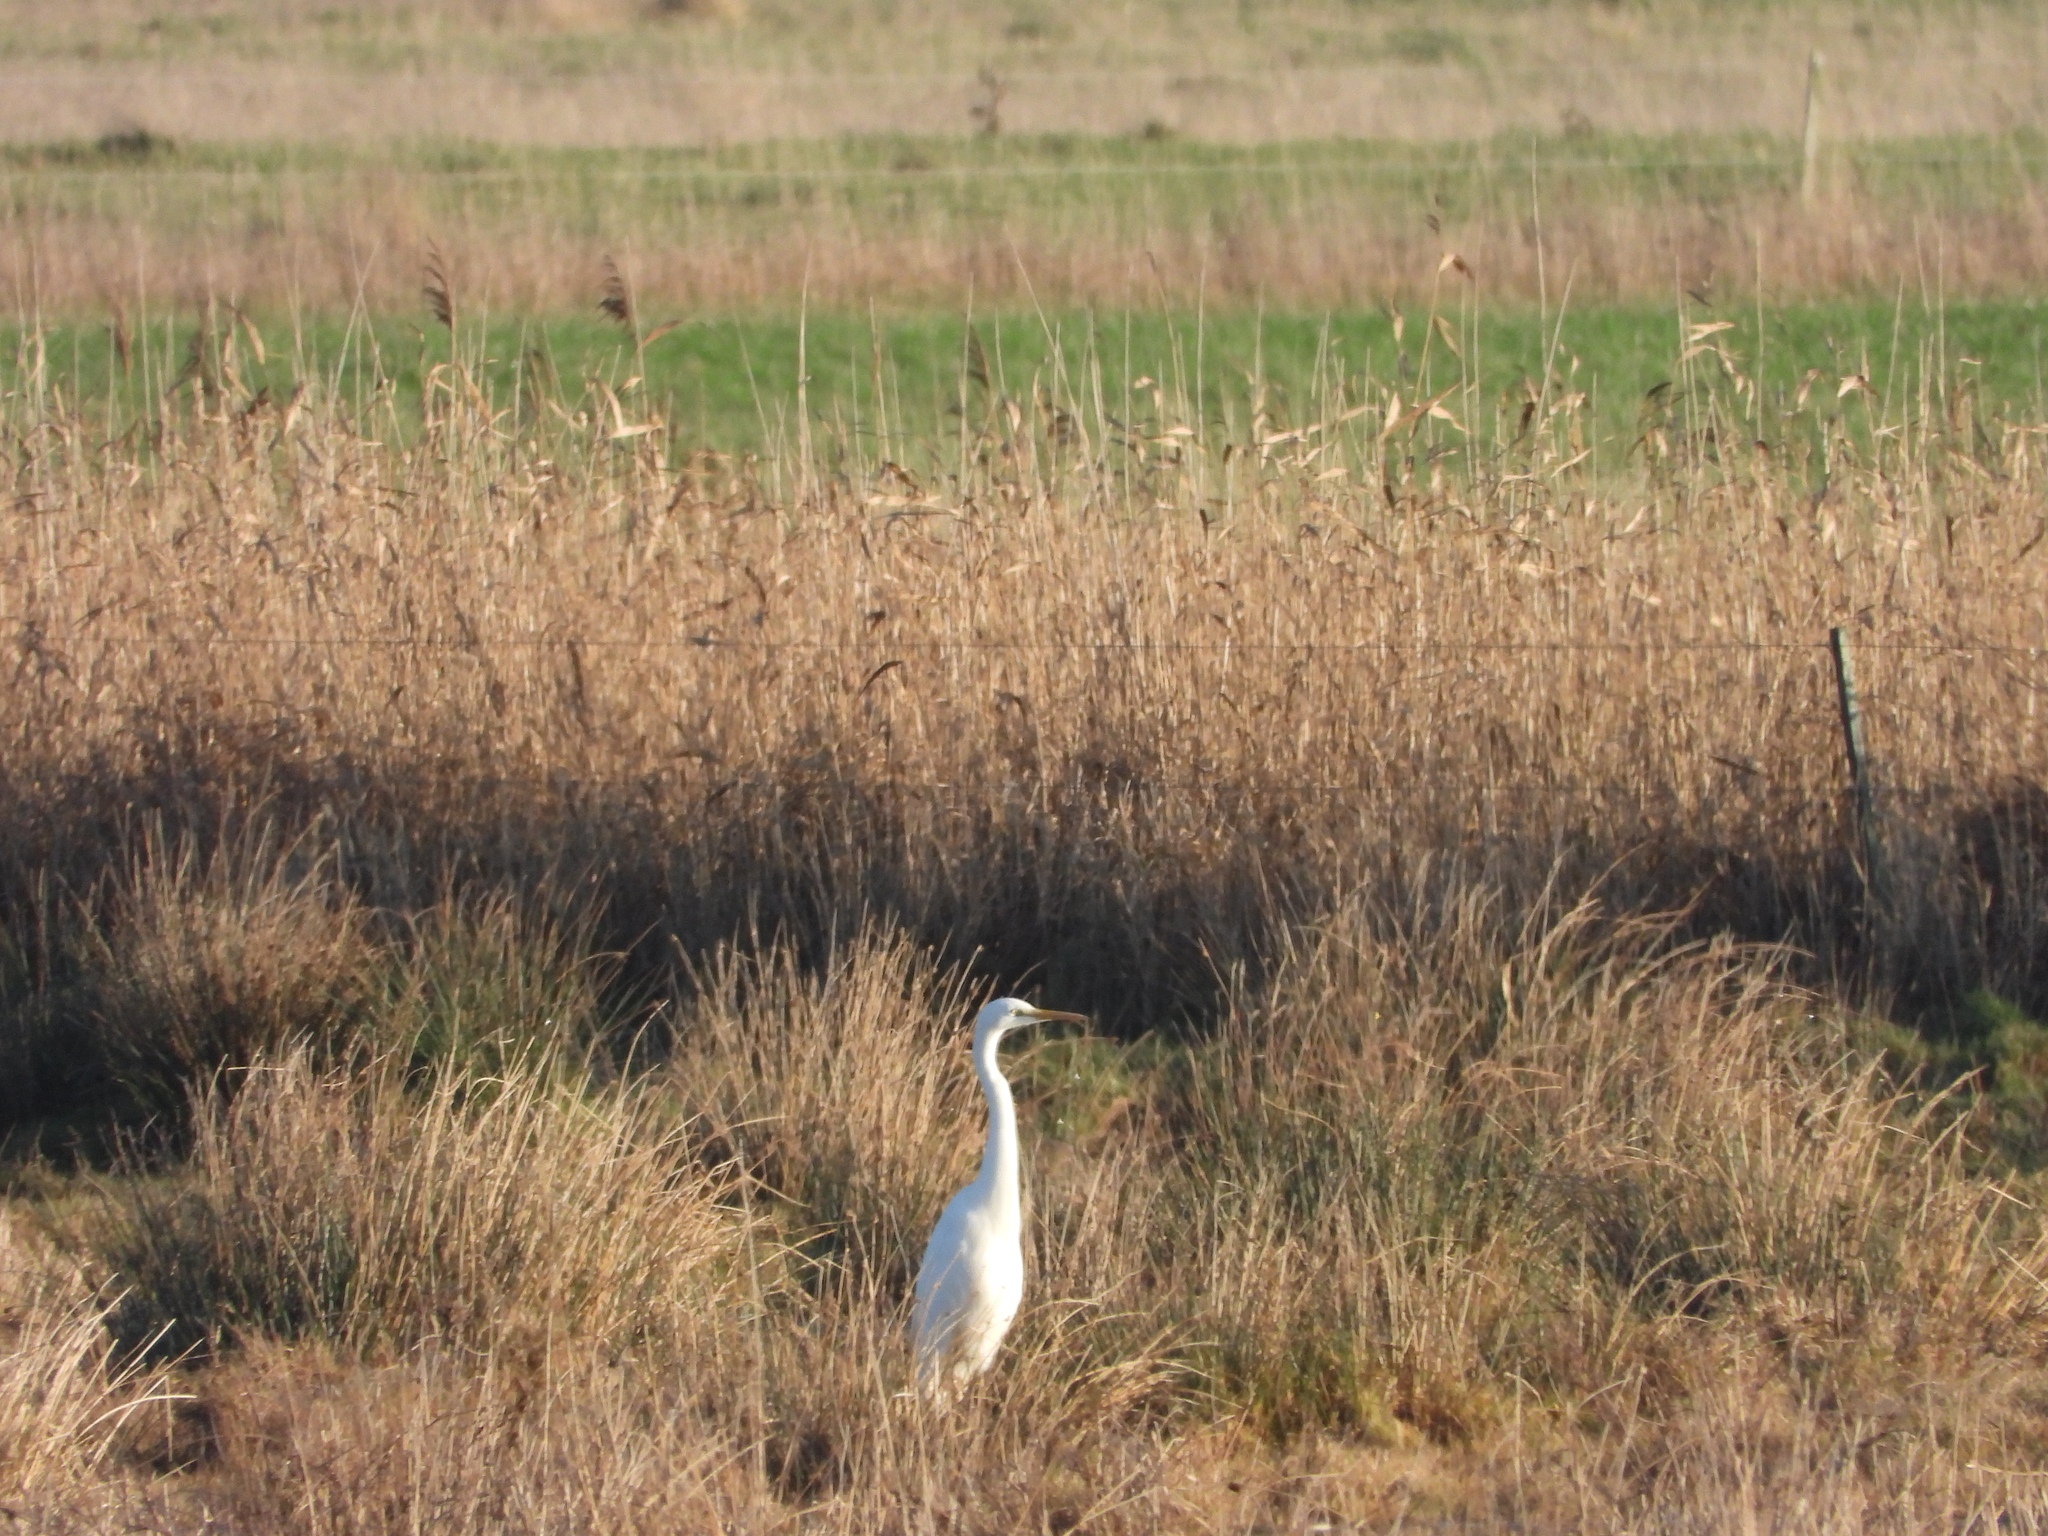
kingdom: Animalia
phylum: Chordata
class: Aves
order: Pelecaniformes
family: Ardeidae
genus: Ardea
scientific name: Ardea alba
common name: Great egret
